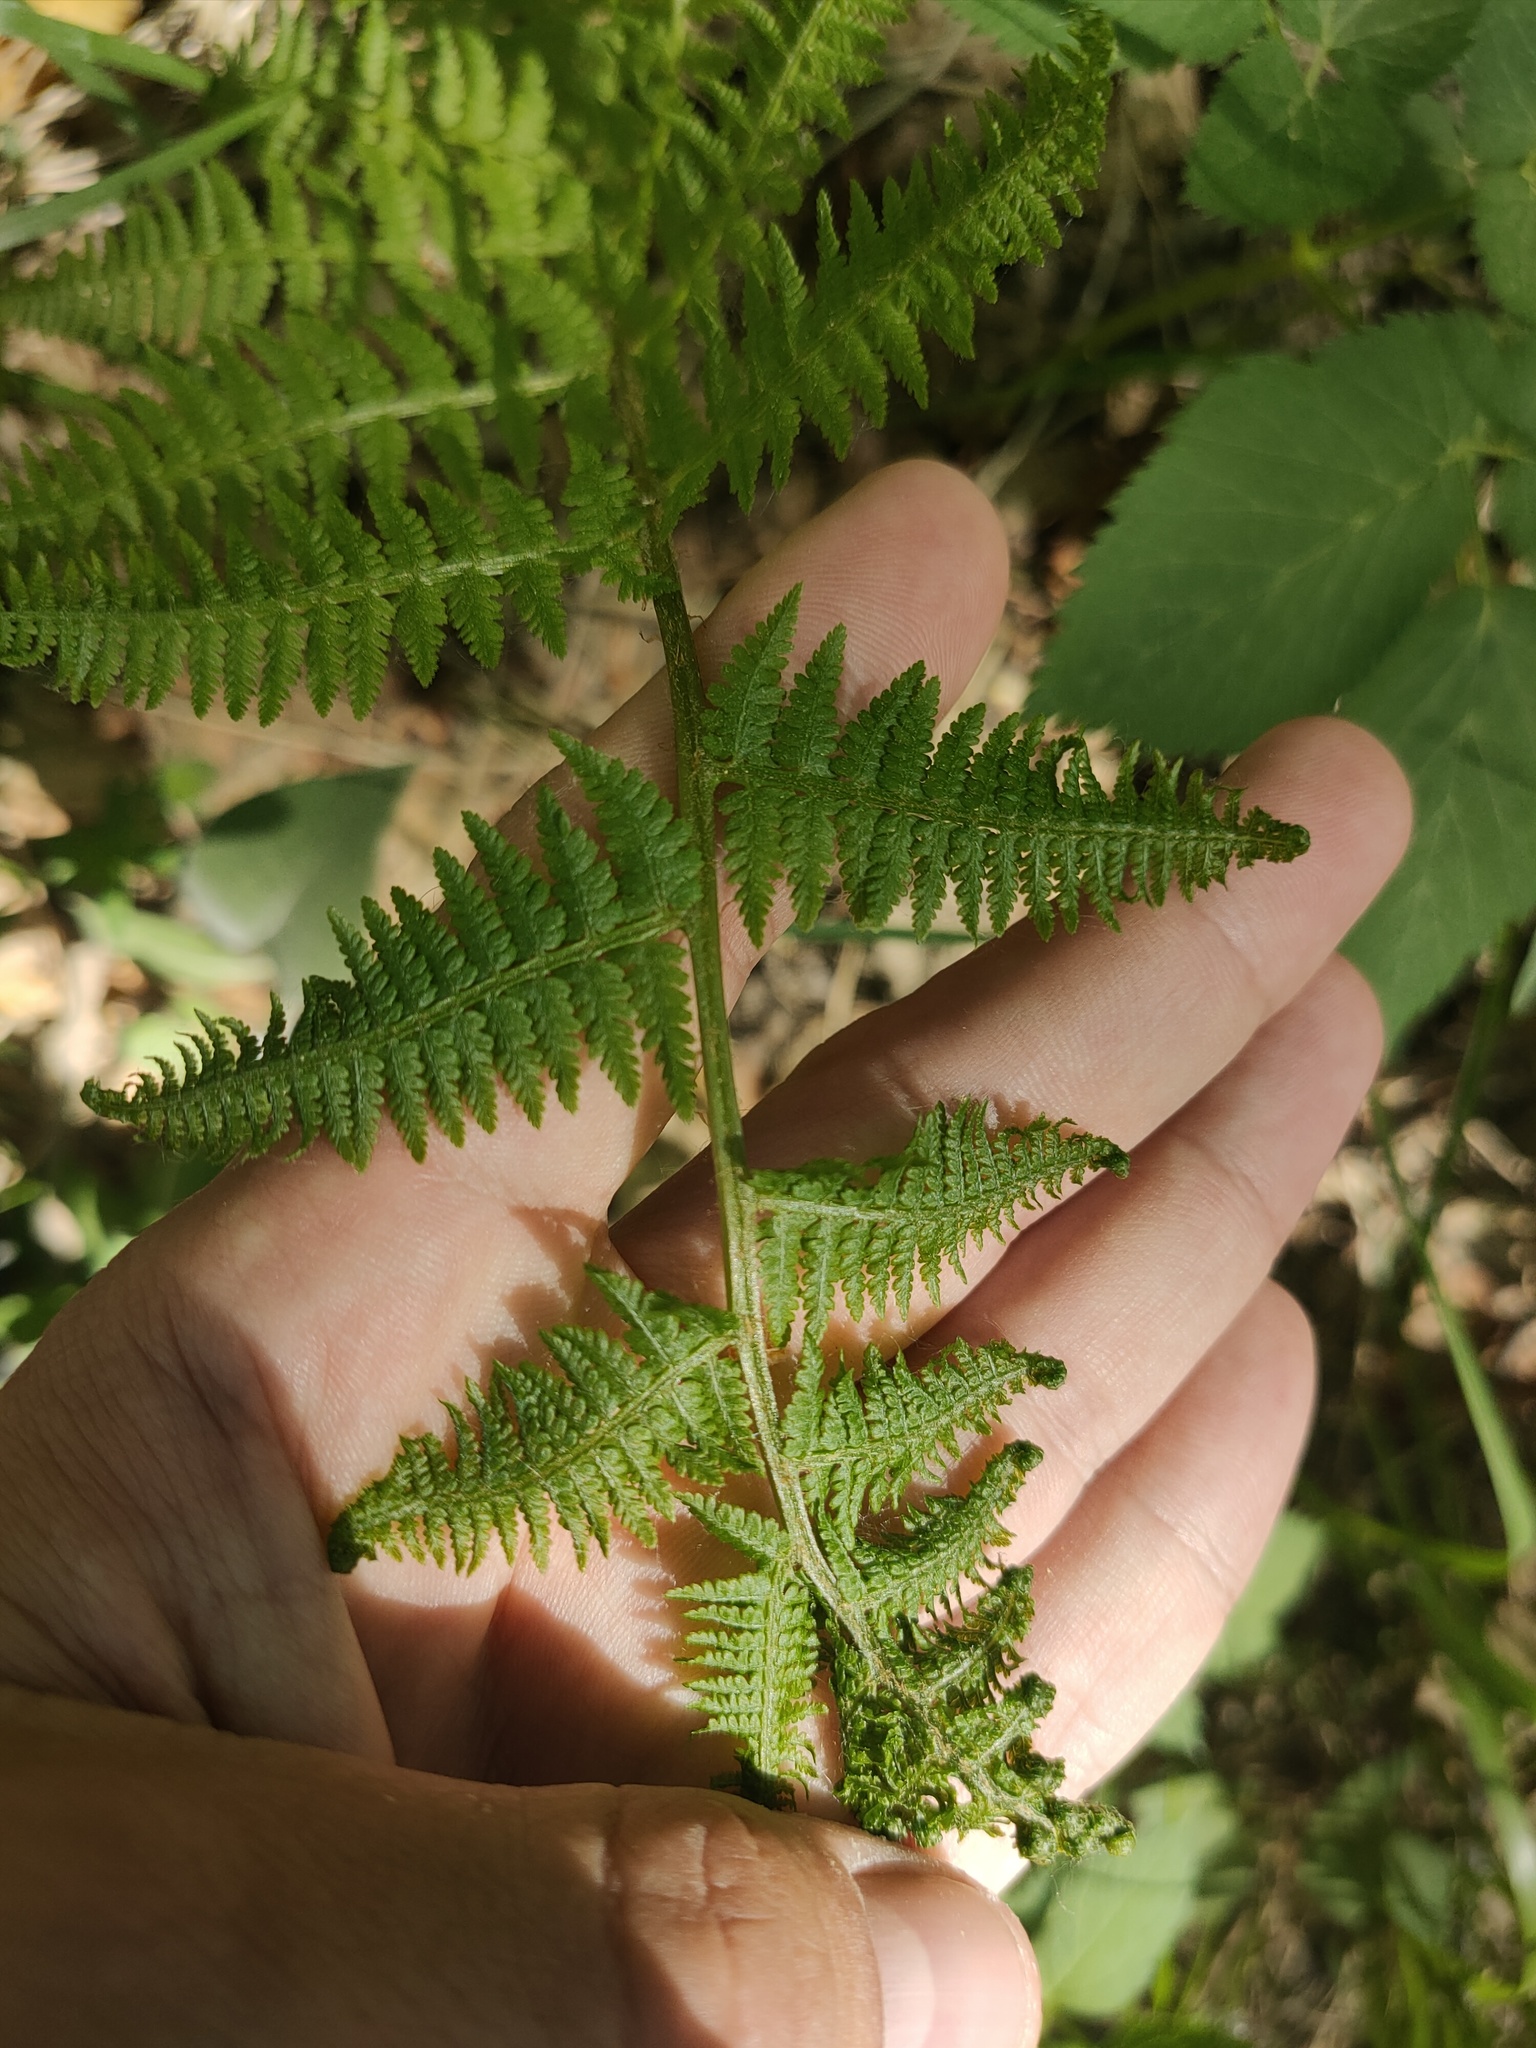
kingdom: Plantae
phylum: Tracheophyta
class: Polypodiopsida
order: Polypodiales
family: Athyriaceae
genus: Athyrium
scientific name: Athyrium filix-femina
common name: Lady fern
